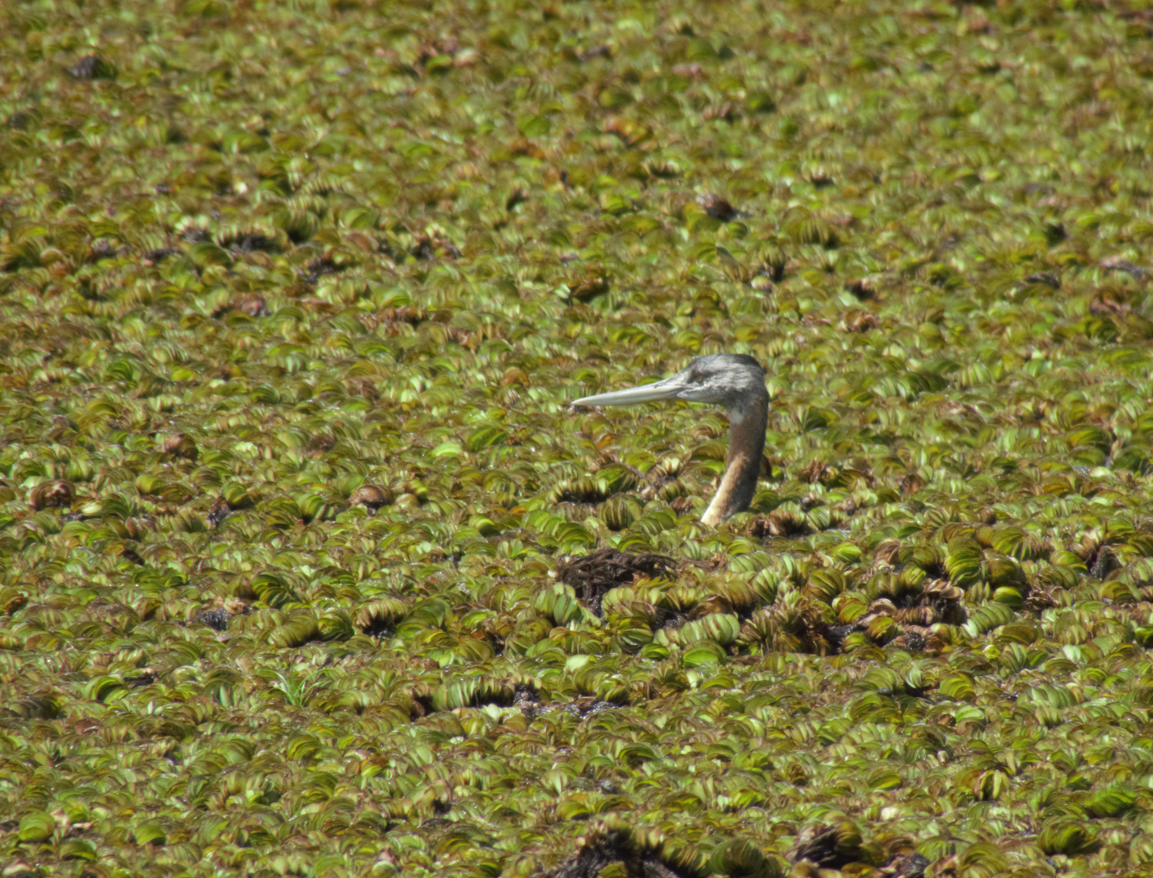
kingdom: Animalia
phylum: Chordata
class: Aves
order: Podicipediformes
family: Podicipedidae
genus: Podiceps
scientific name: Podiceps major
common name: Great grebe
